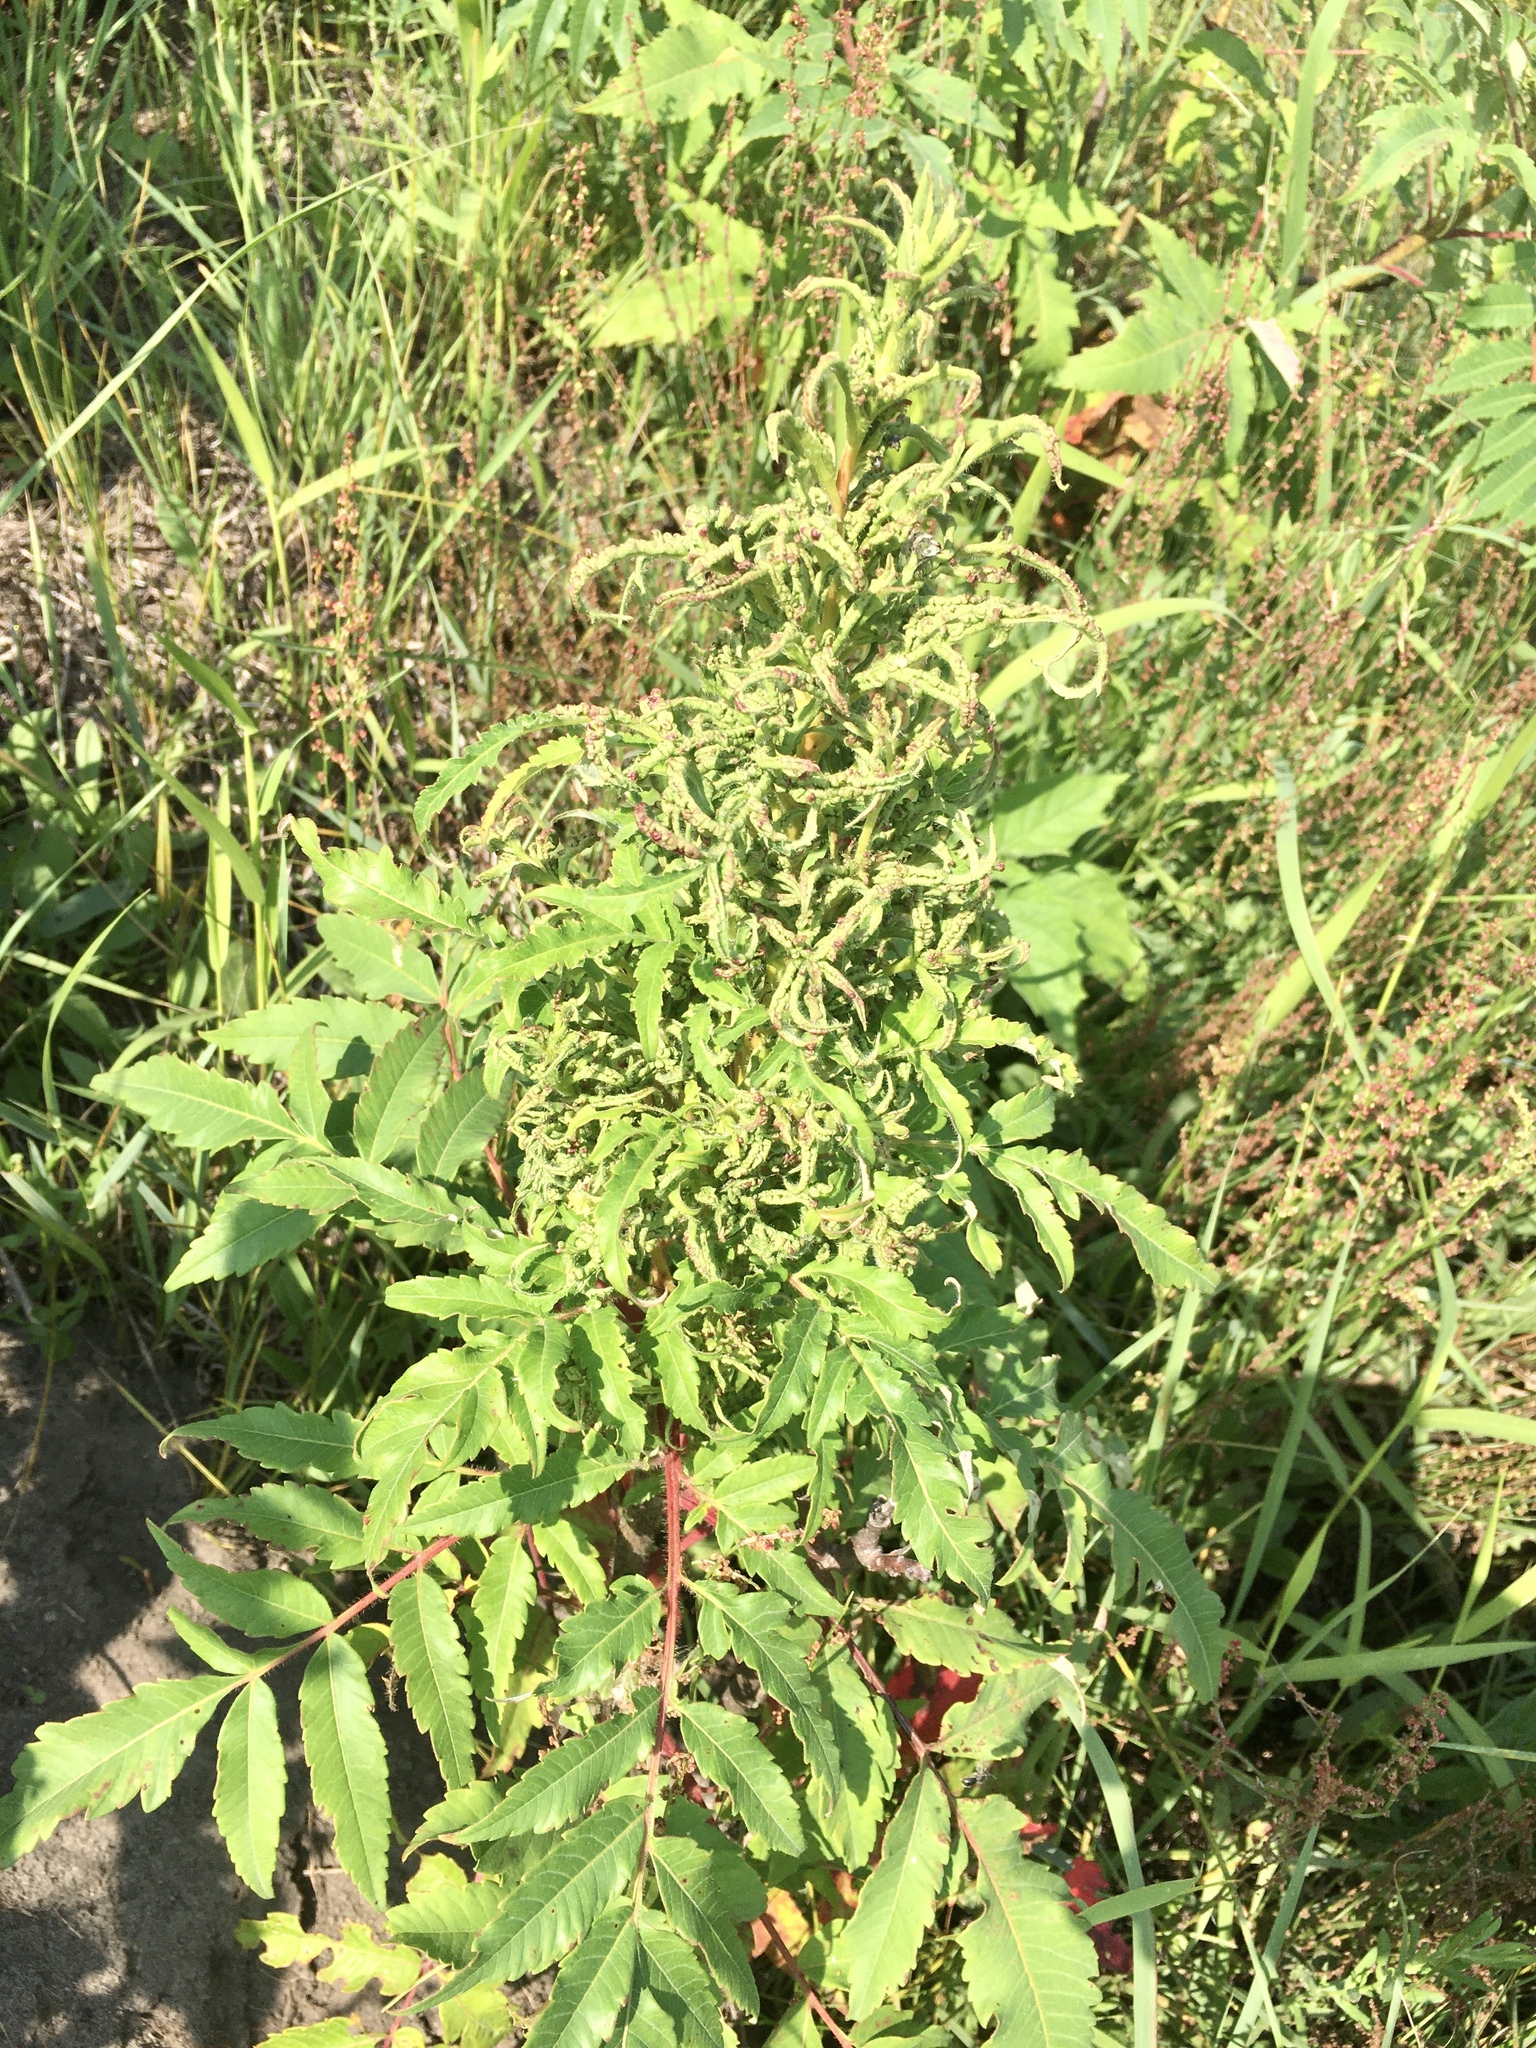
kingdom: Animalia
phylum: Arthropoda
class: Arachnida
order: Trombidiformes
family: Eriophyidae
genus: Eriophyes
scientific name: Eriophyes
